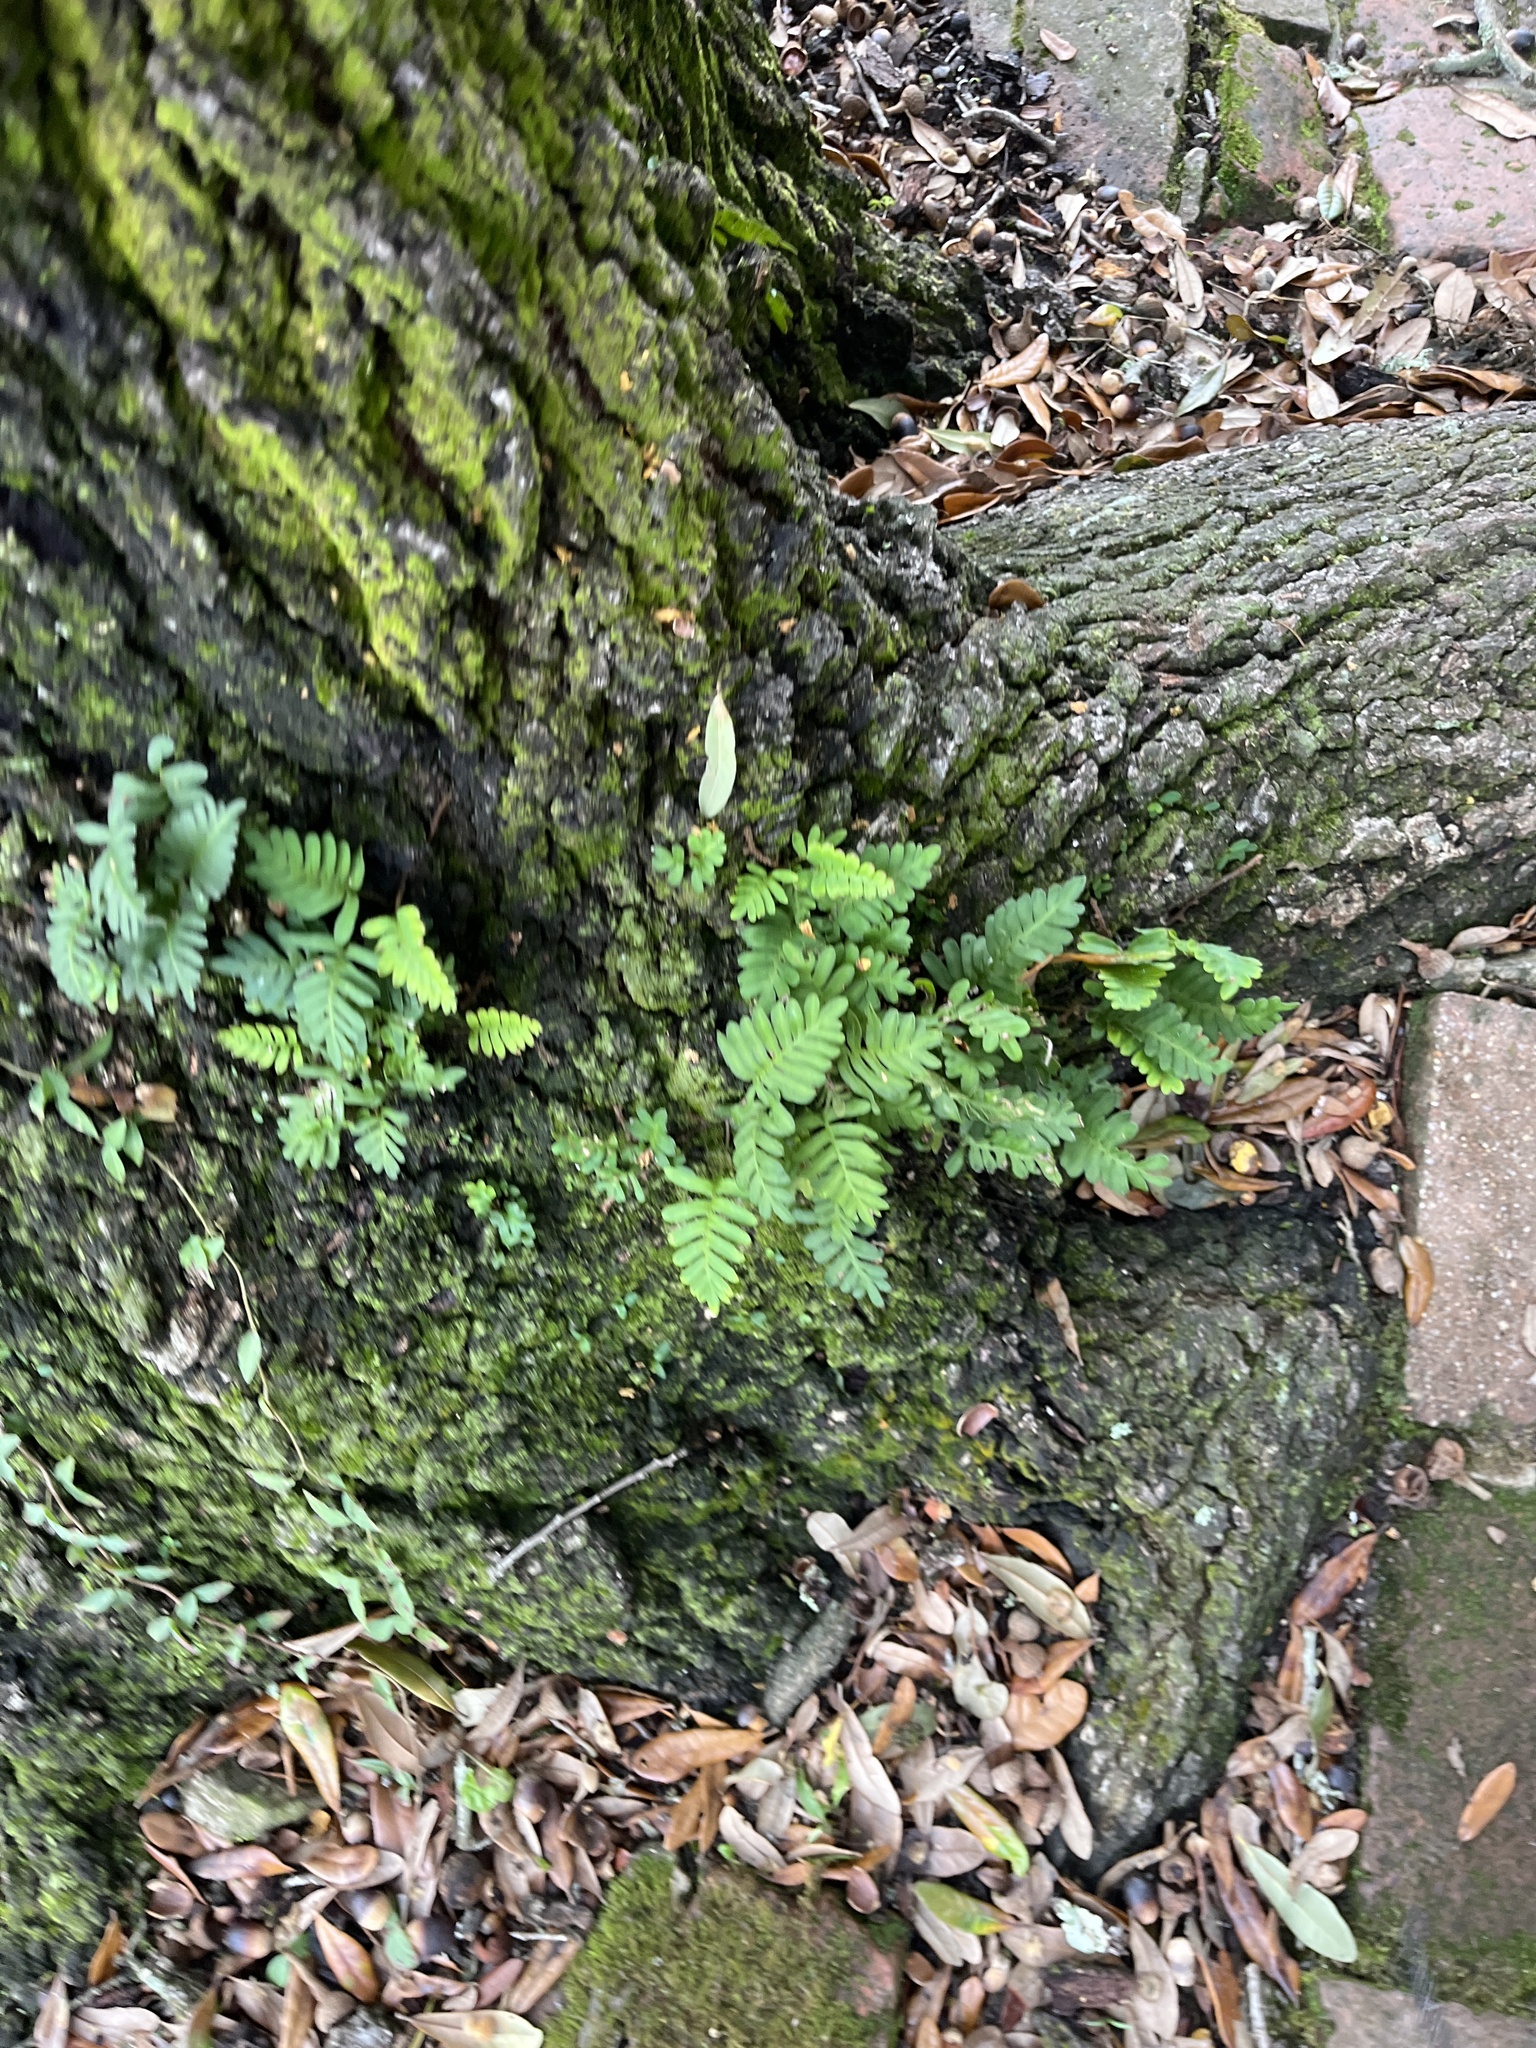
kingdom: Plantae
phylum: Tracheophyta
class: Polypodiopsida
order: Polypodiales
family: Polypodiaceae
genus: Pleopeltis
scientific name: Pleopeltis michauxiana
